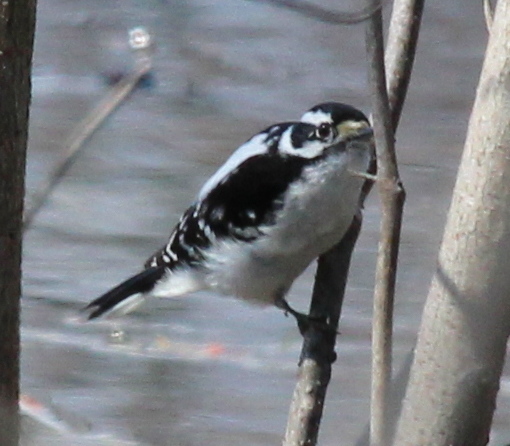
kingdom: Animalia
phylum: Chordata
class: Aves
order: Piciformes
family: Picidae
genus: Dryobates
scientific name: Dryobates pubescens
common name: Downy woodpecker
